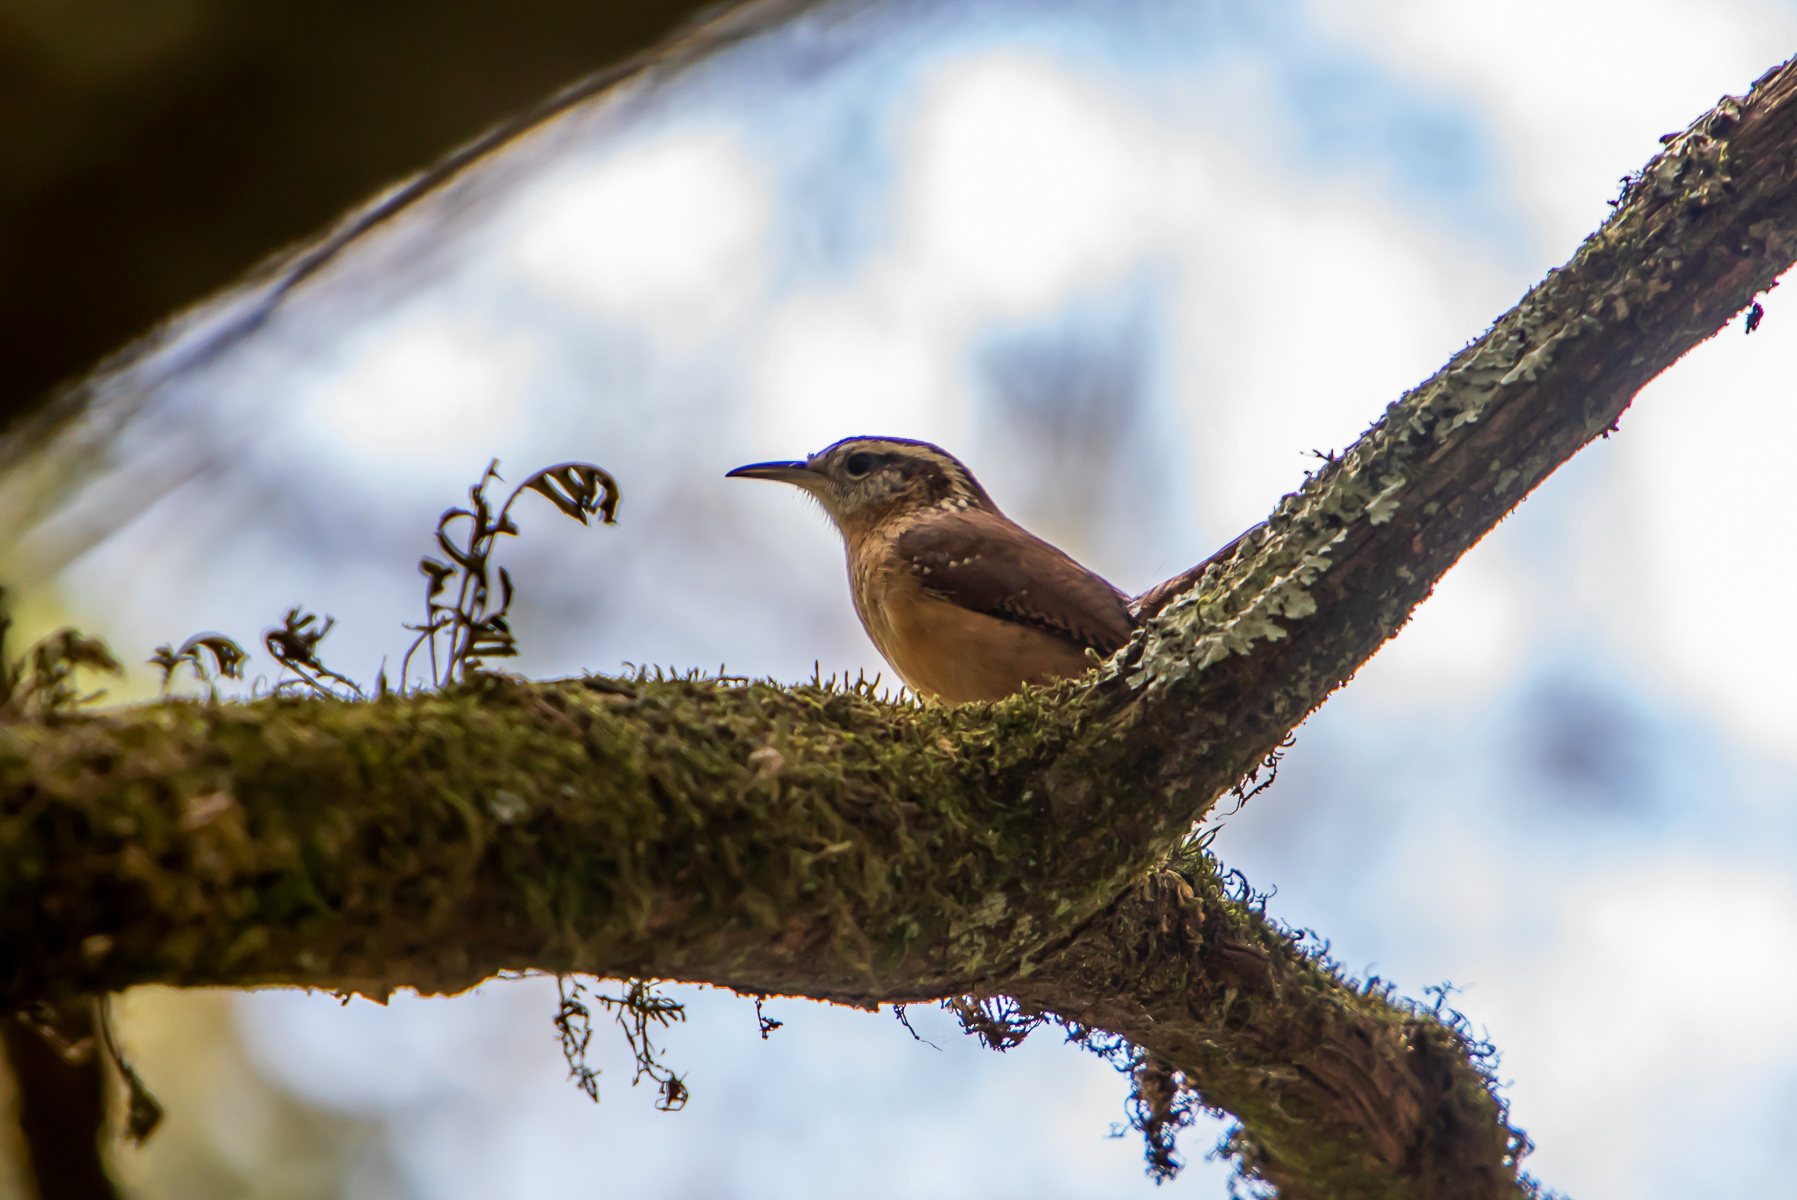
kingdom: Animalia
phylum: Chordata
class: Aves
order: Passeriformes
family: Troglodytidae
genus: Thryothorus
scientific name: Thryothorus ludovicianus
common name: Carolina wren
